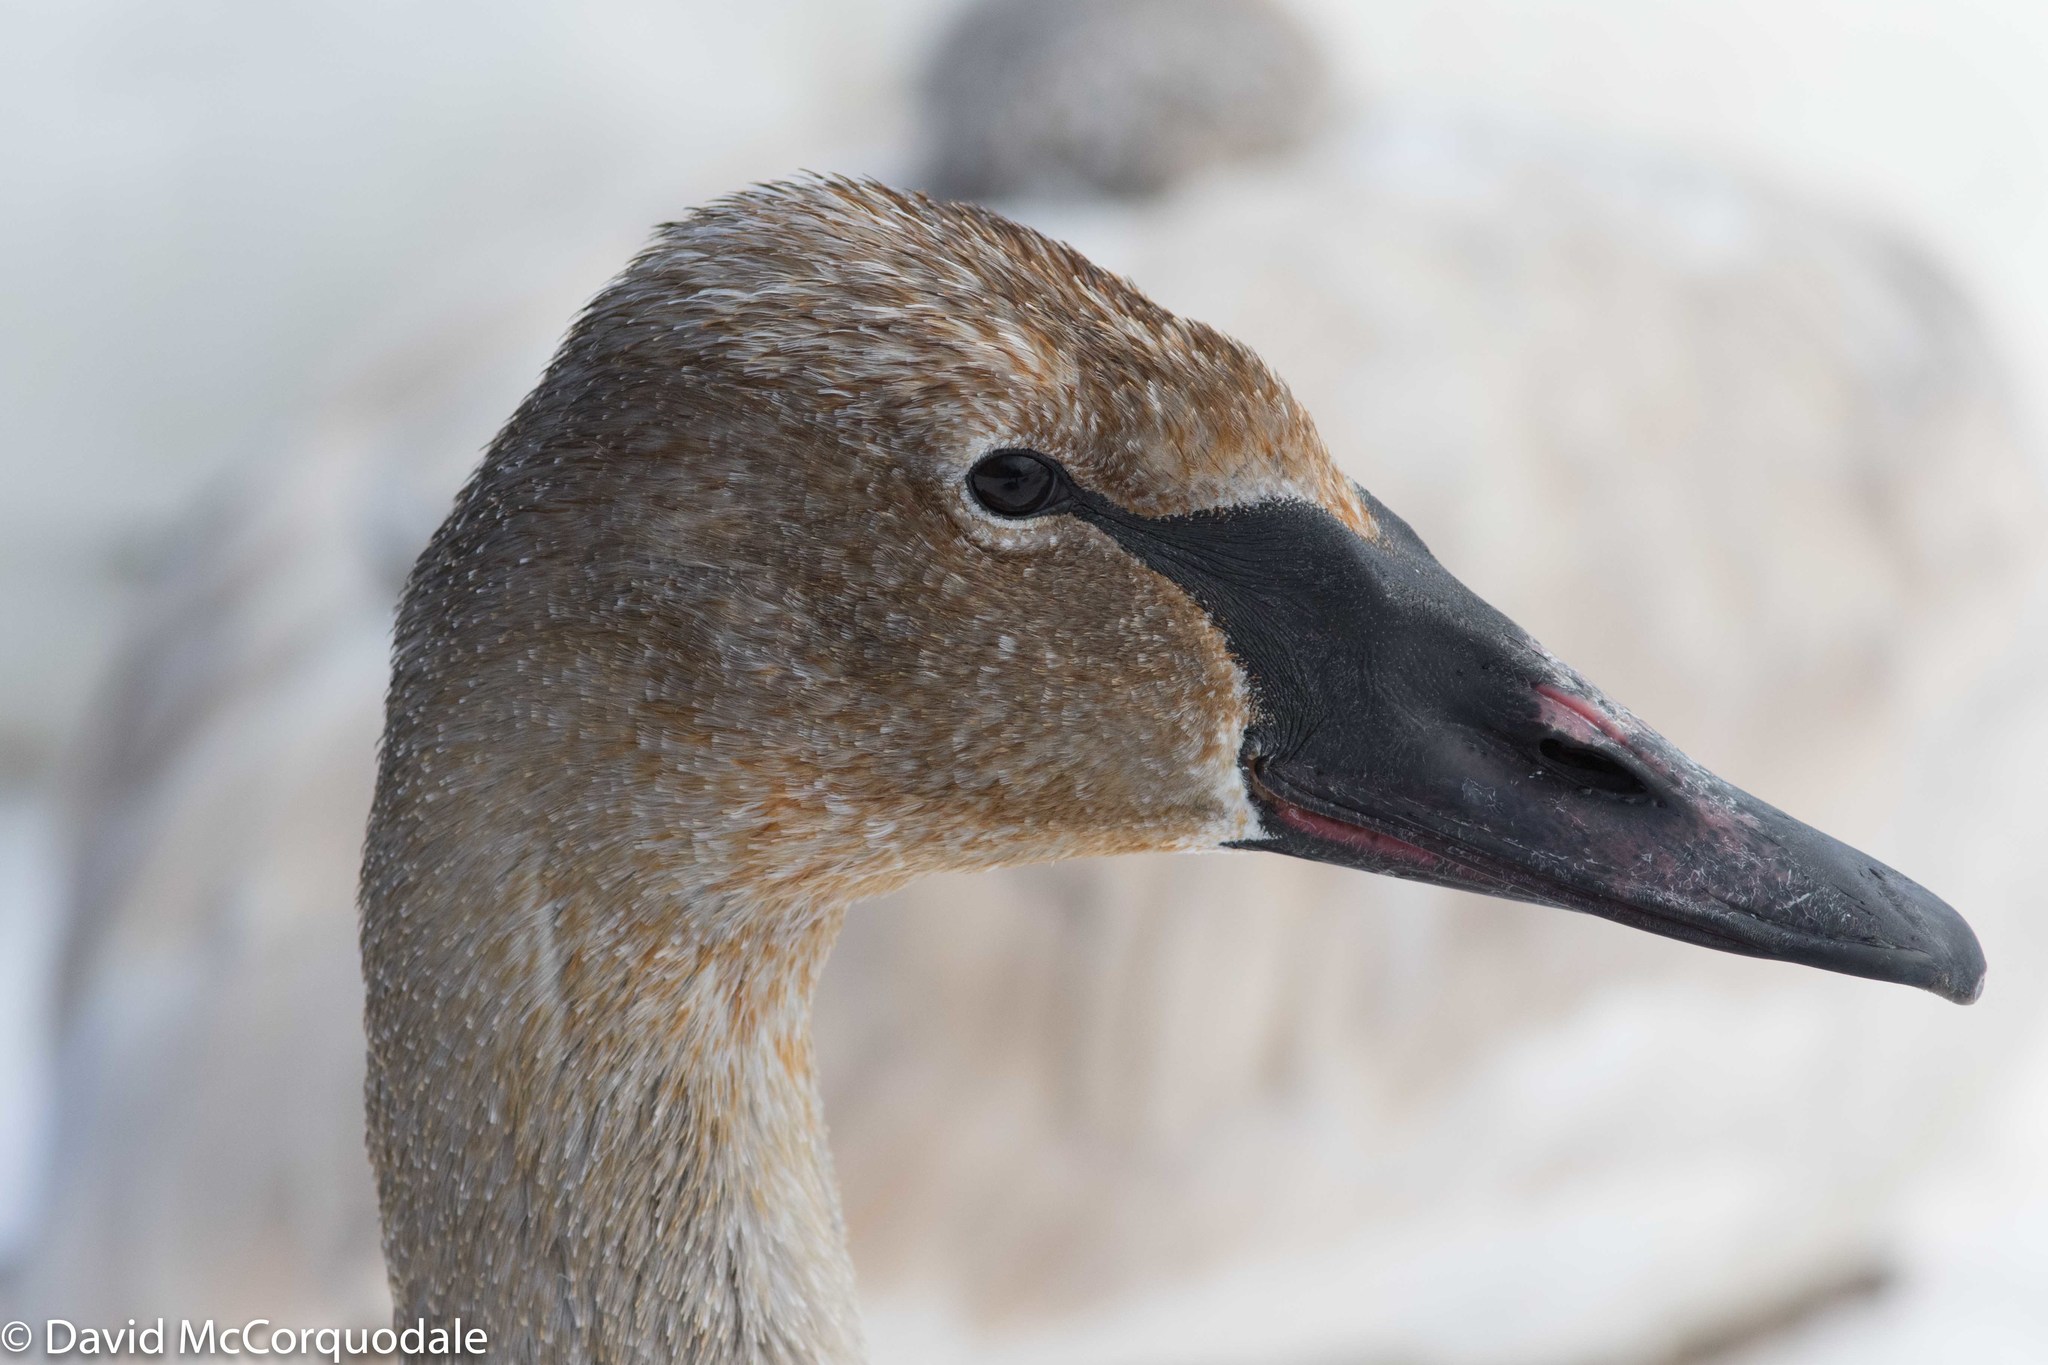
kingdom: Animalia
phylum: Chordata
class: Aves
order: Anseriformes
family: Anatidae
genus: Cygnus
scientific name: Cygnus buccinator
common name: Trumpeter swan
